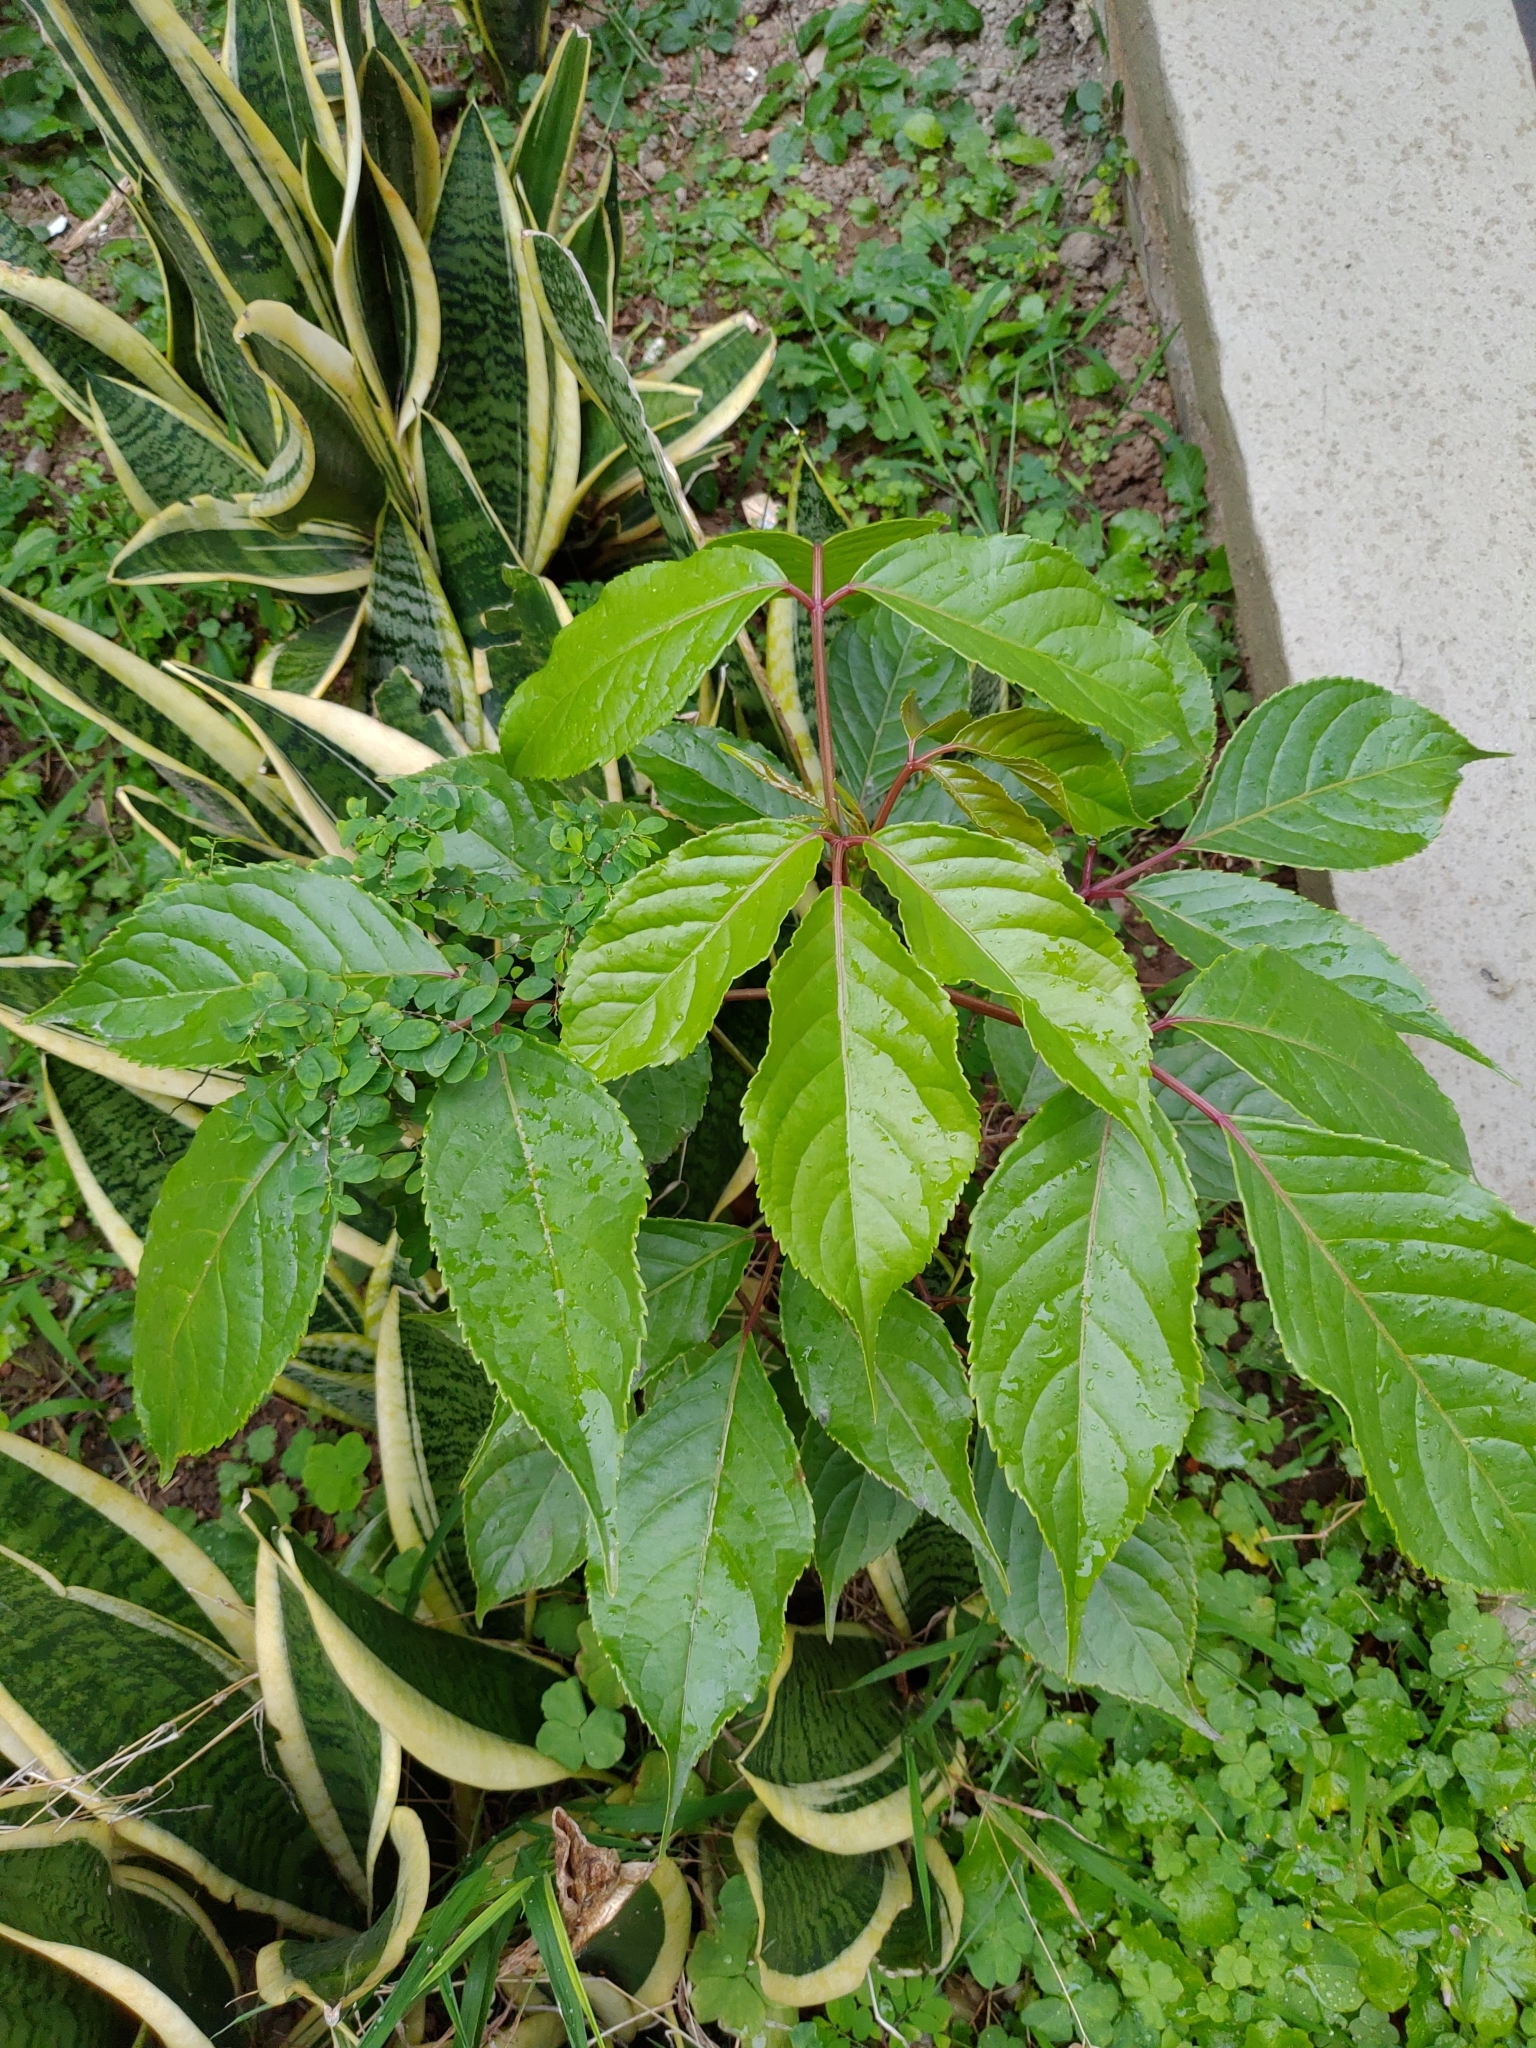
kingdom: Plantae
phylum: Tracheophyta
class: Magnoliopsida
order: Malpighiales
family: Phyllanthaceae
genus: Bischofia
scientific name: Bischofia javanica
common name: Javanese bishopwood
